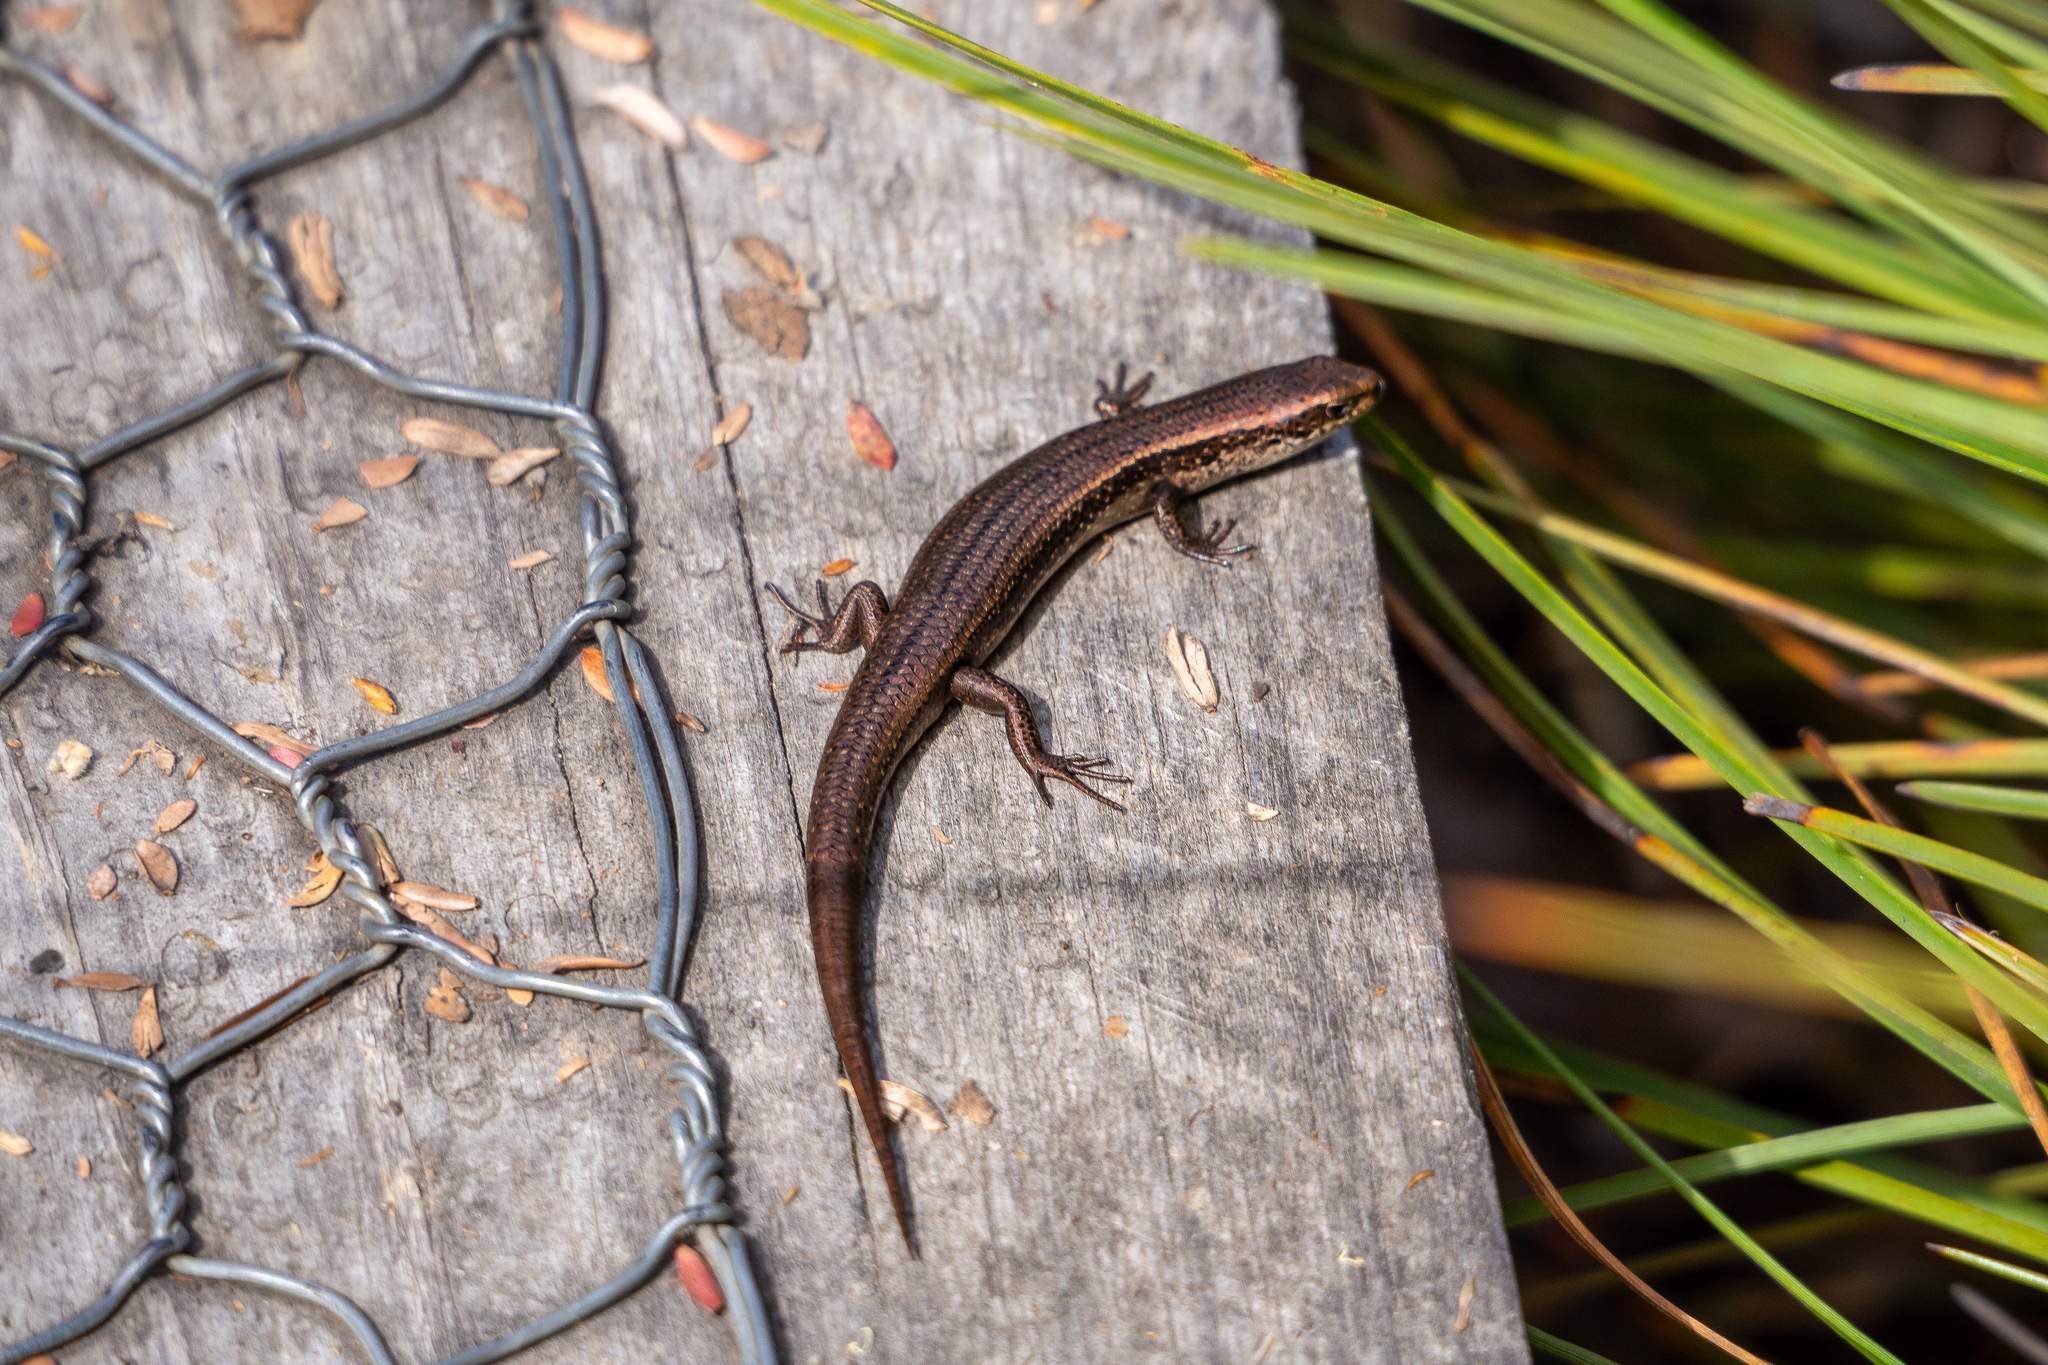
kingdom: Animalia
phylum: Chordata
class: Squamata
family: Scincidae
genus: Carinascincus
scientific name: Carinascincus metallicus
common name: Metallic cool-skink
